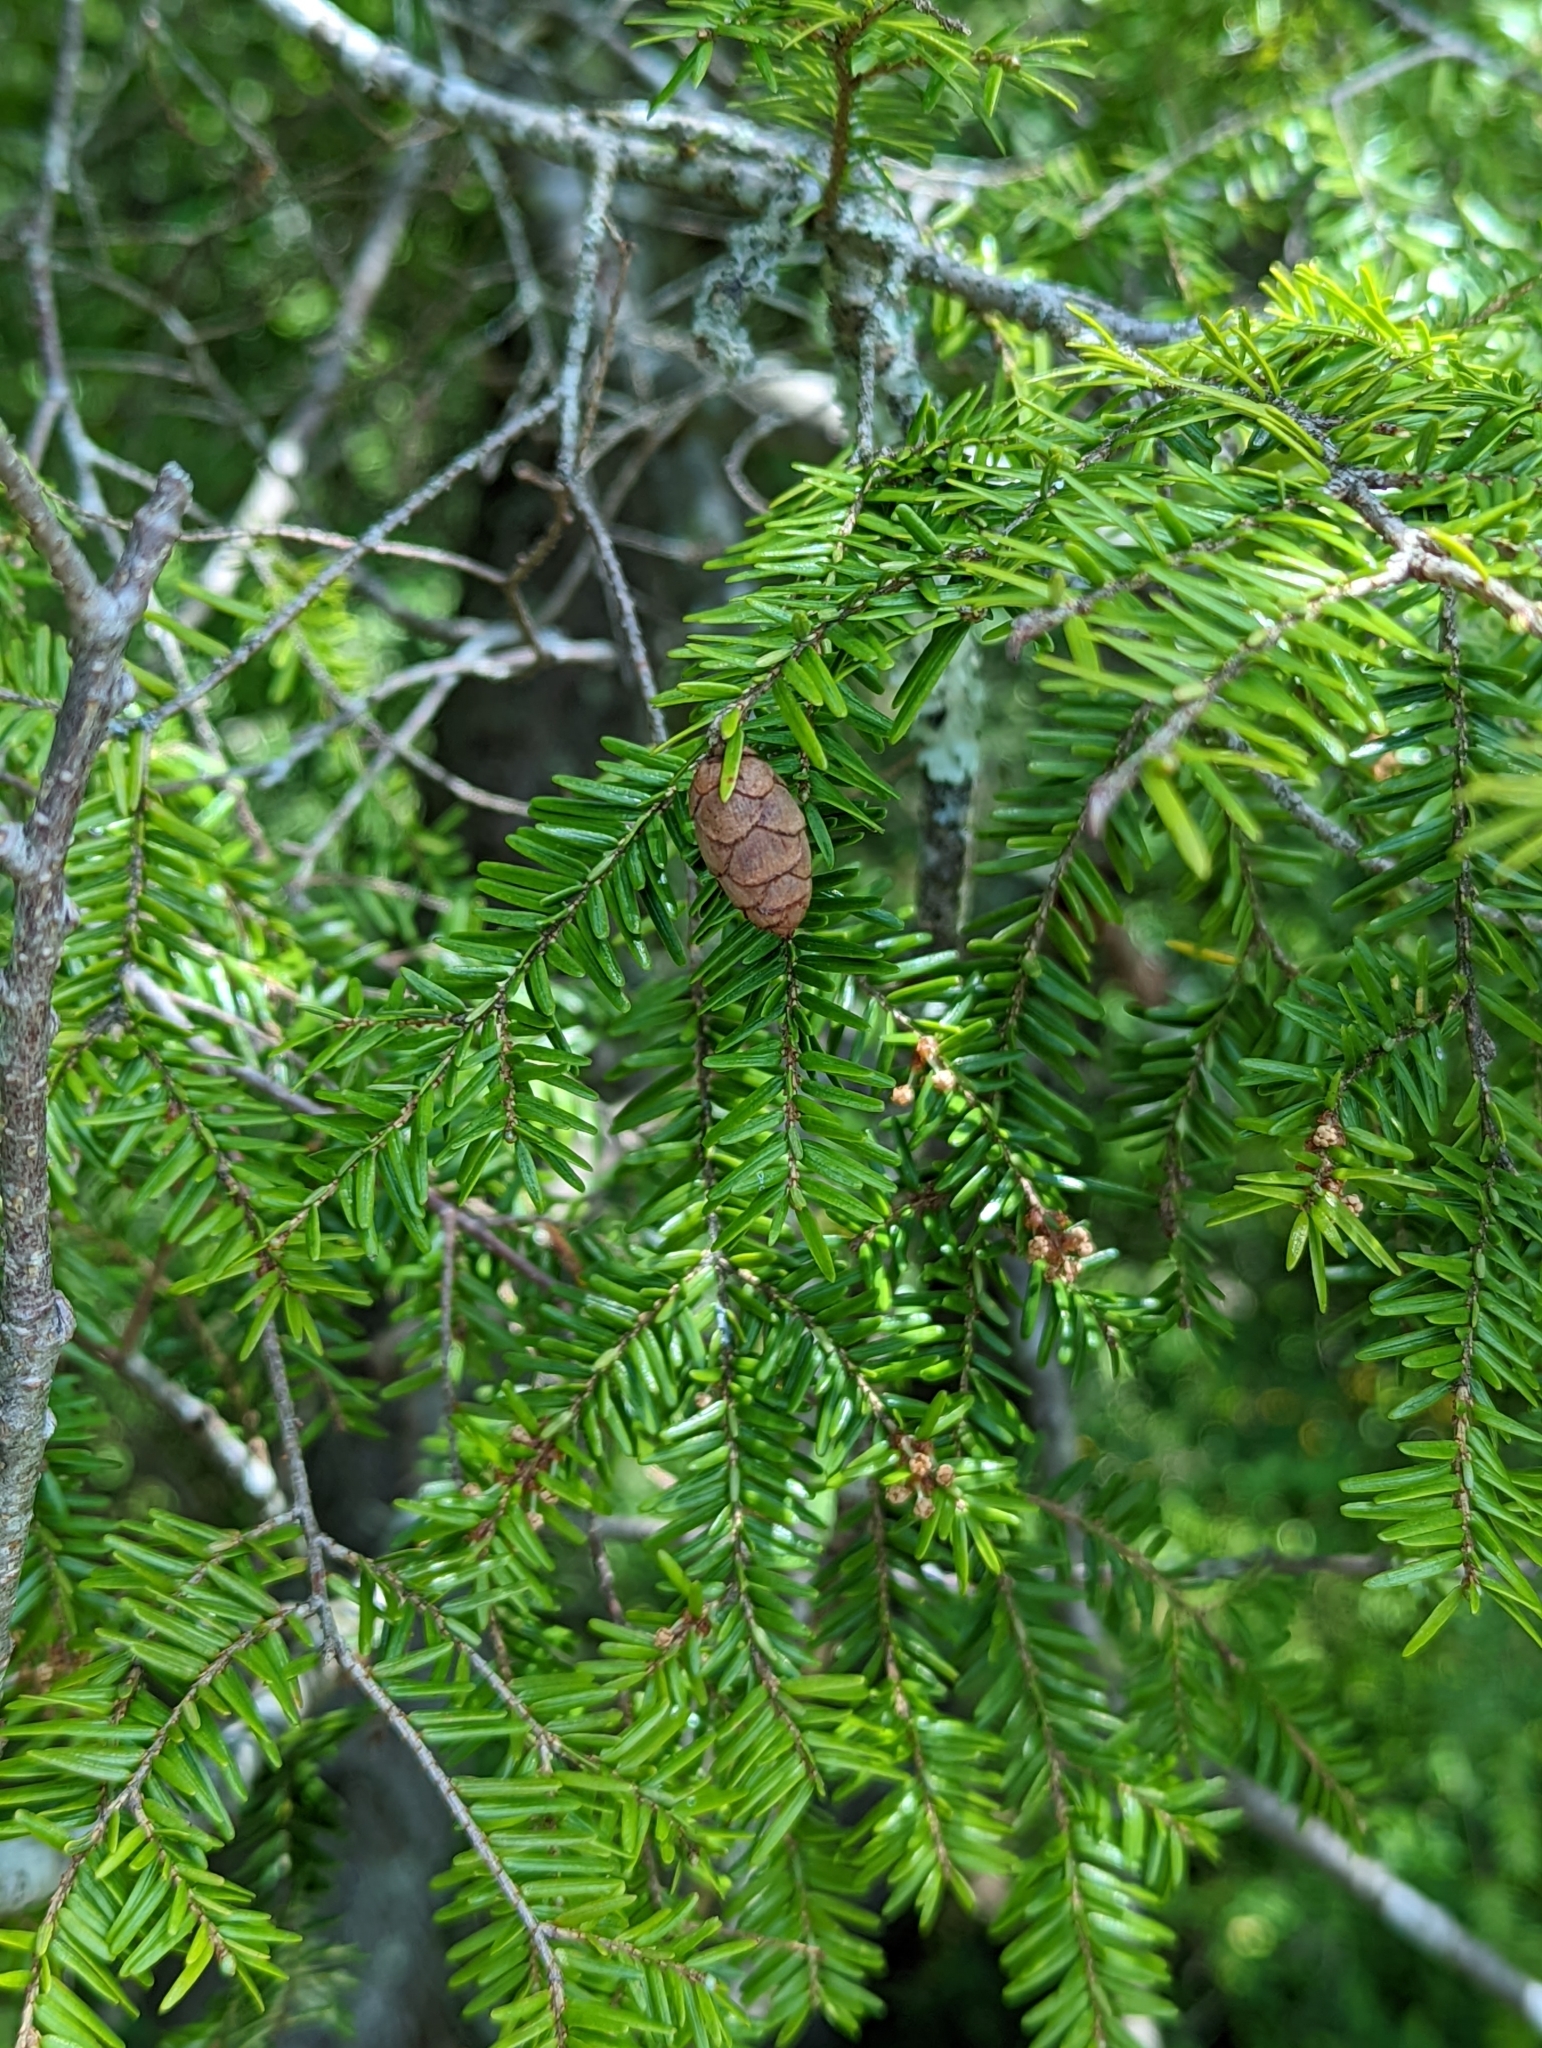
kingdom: Plantae
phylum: Tracheophyta
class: Pinopsida
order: Pinales
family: Pinaceae
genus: Tsuga
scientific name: Tsuga canadensis
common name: Eastern hemlock
